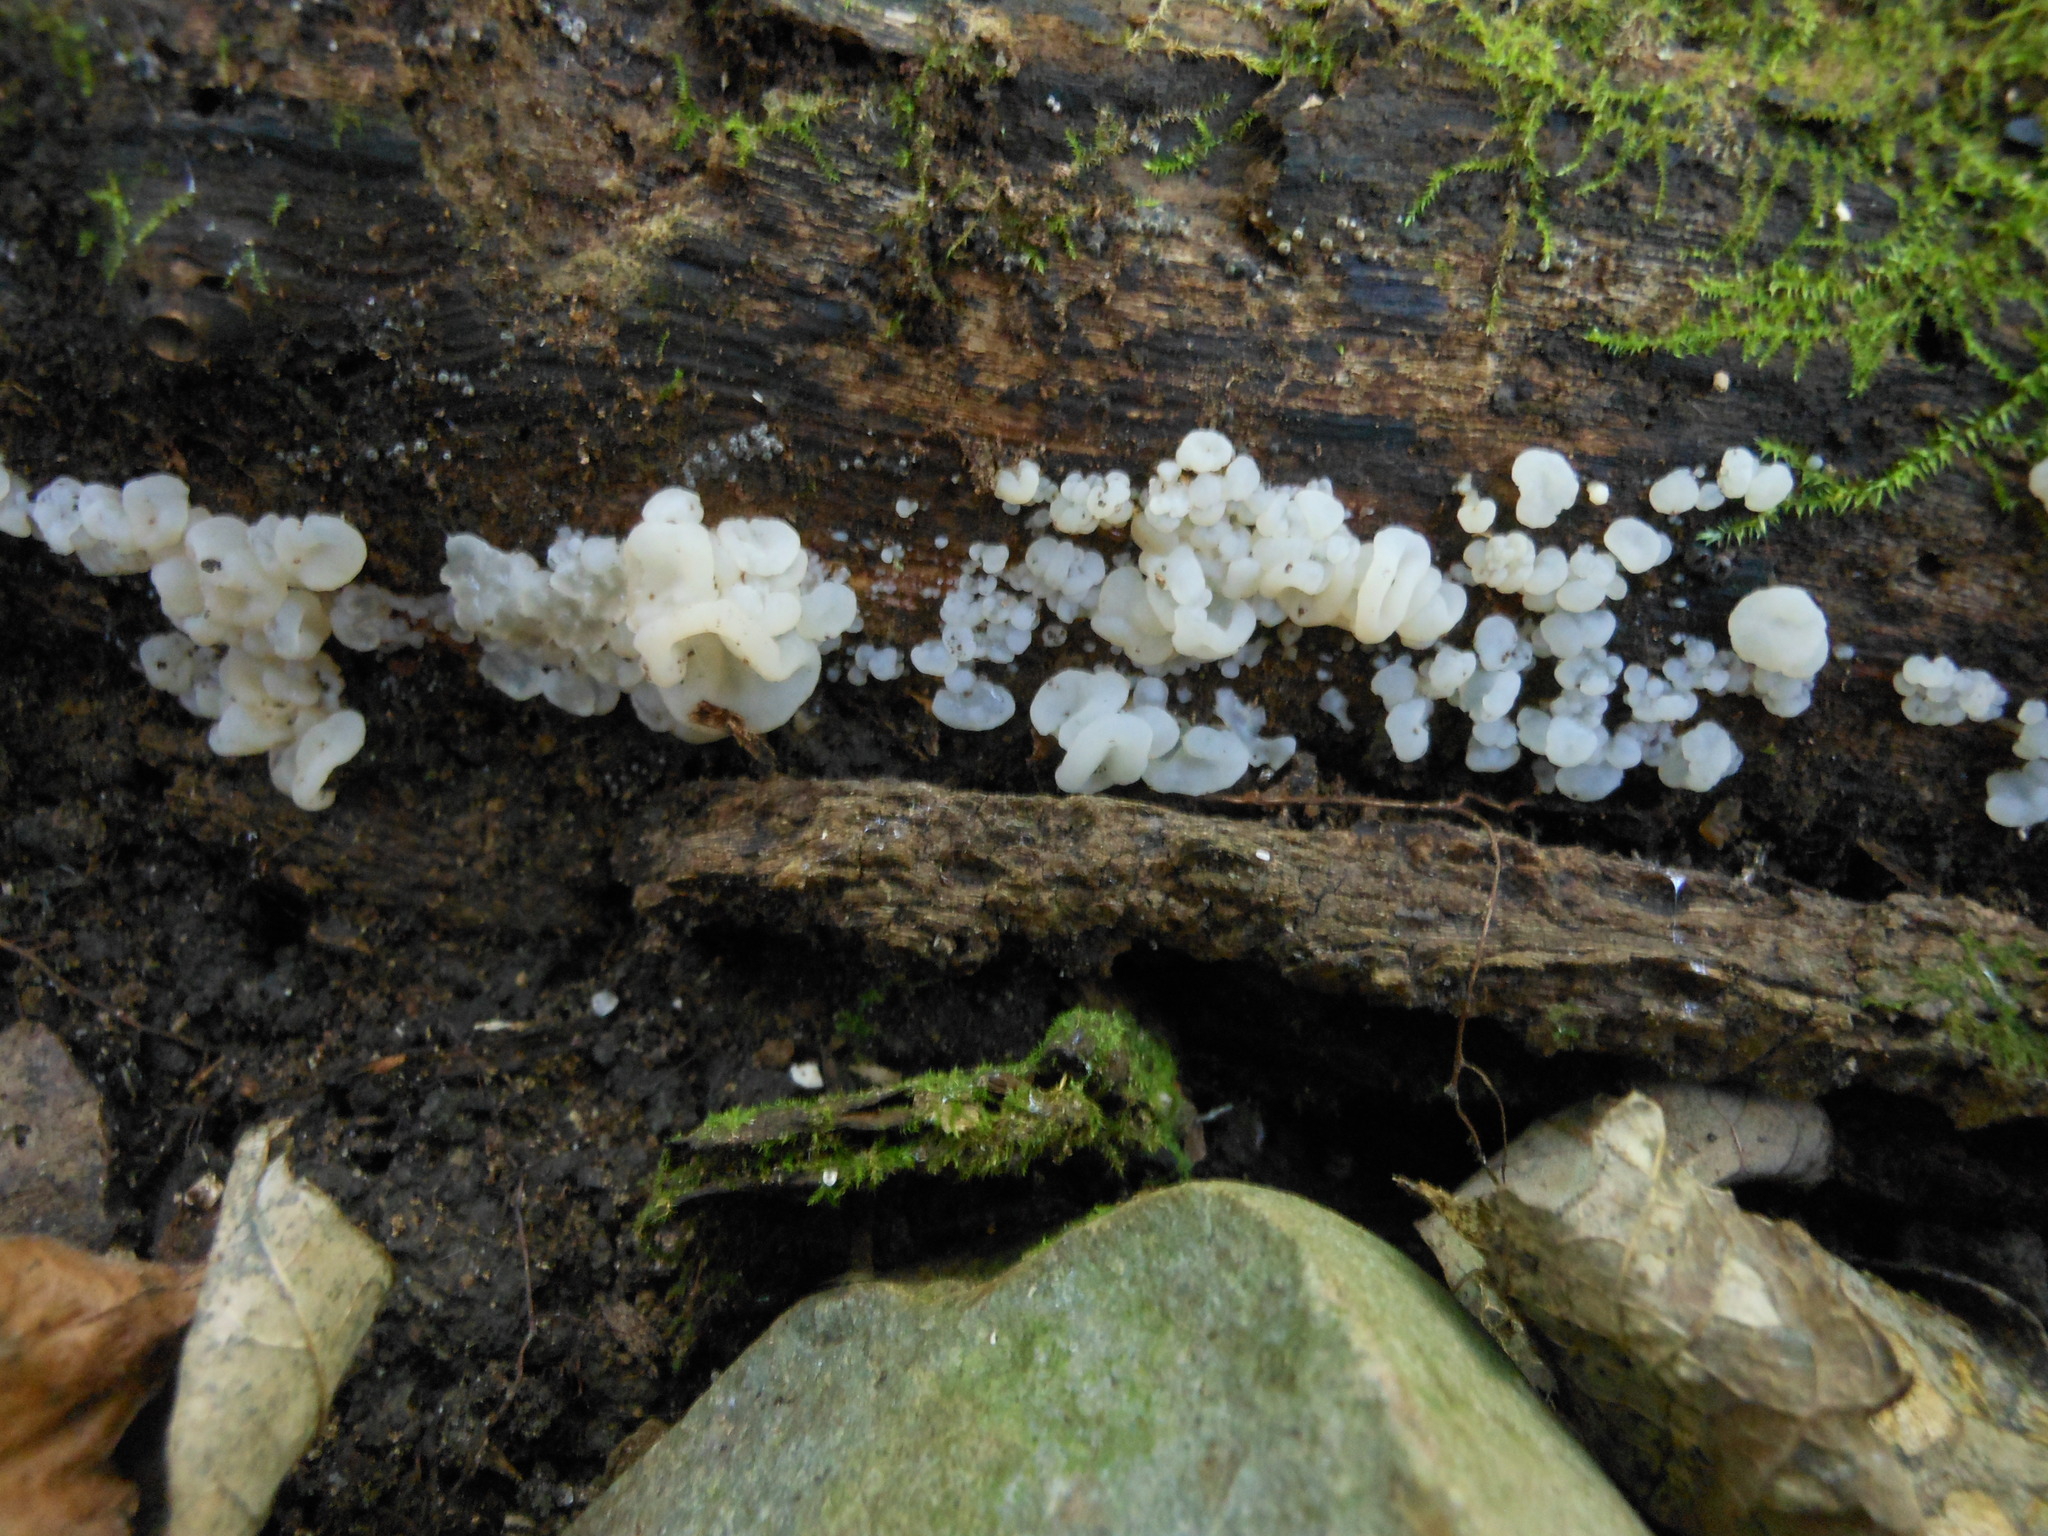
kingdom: Fungi
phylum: Basidiomycota
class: Agaricomycetes
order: Auriculariales
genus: Ductifera
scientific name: Ductifera pululahuana
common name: White jelly fungus
